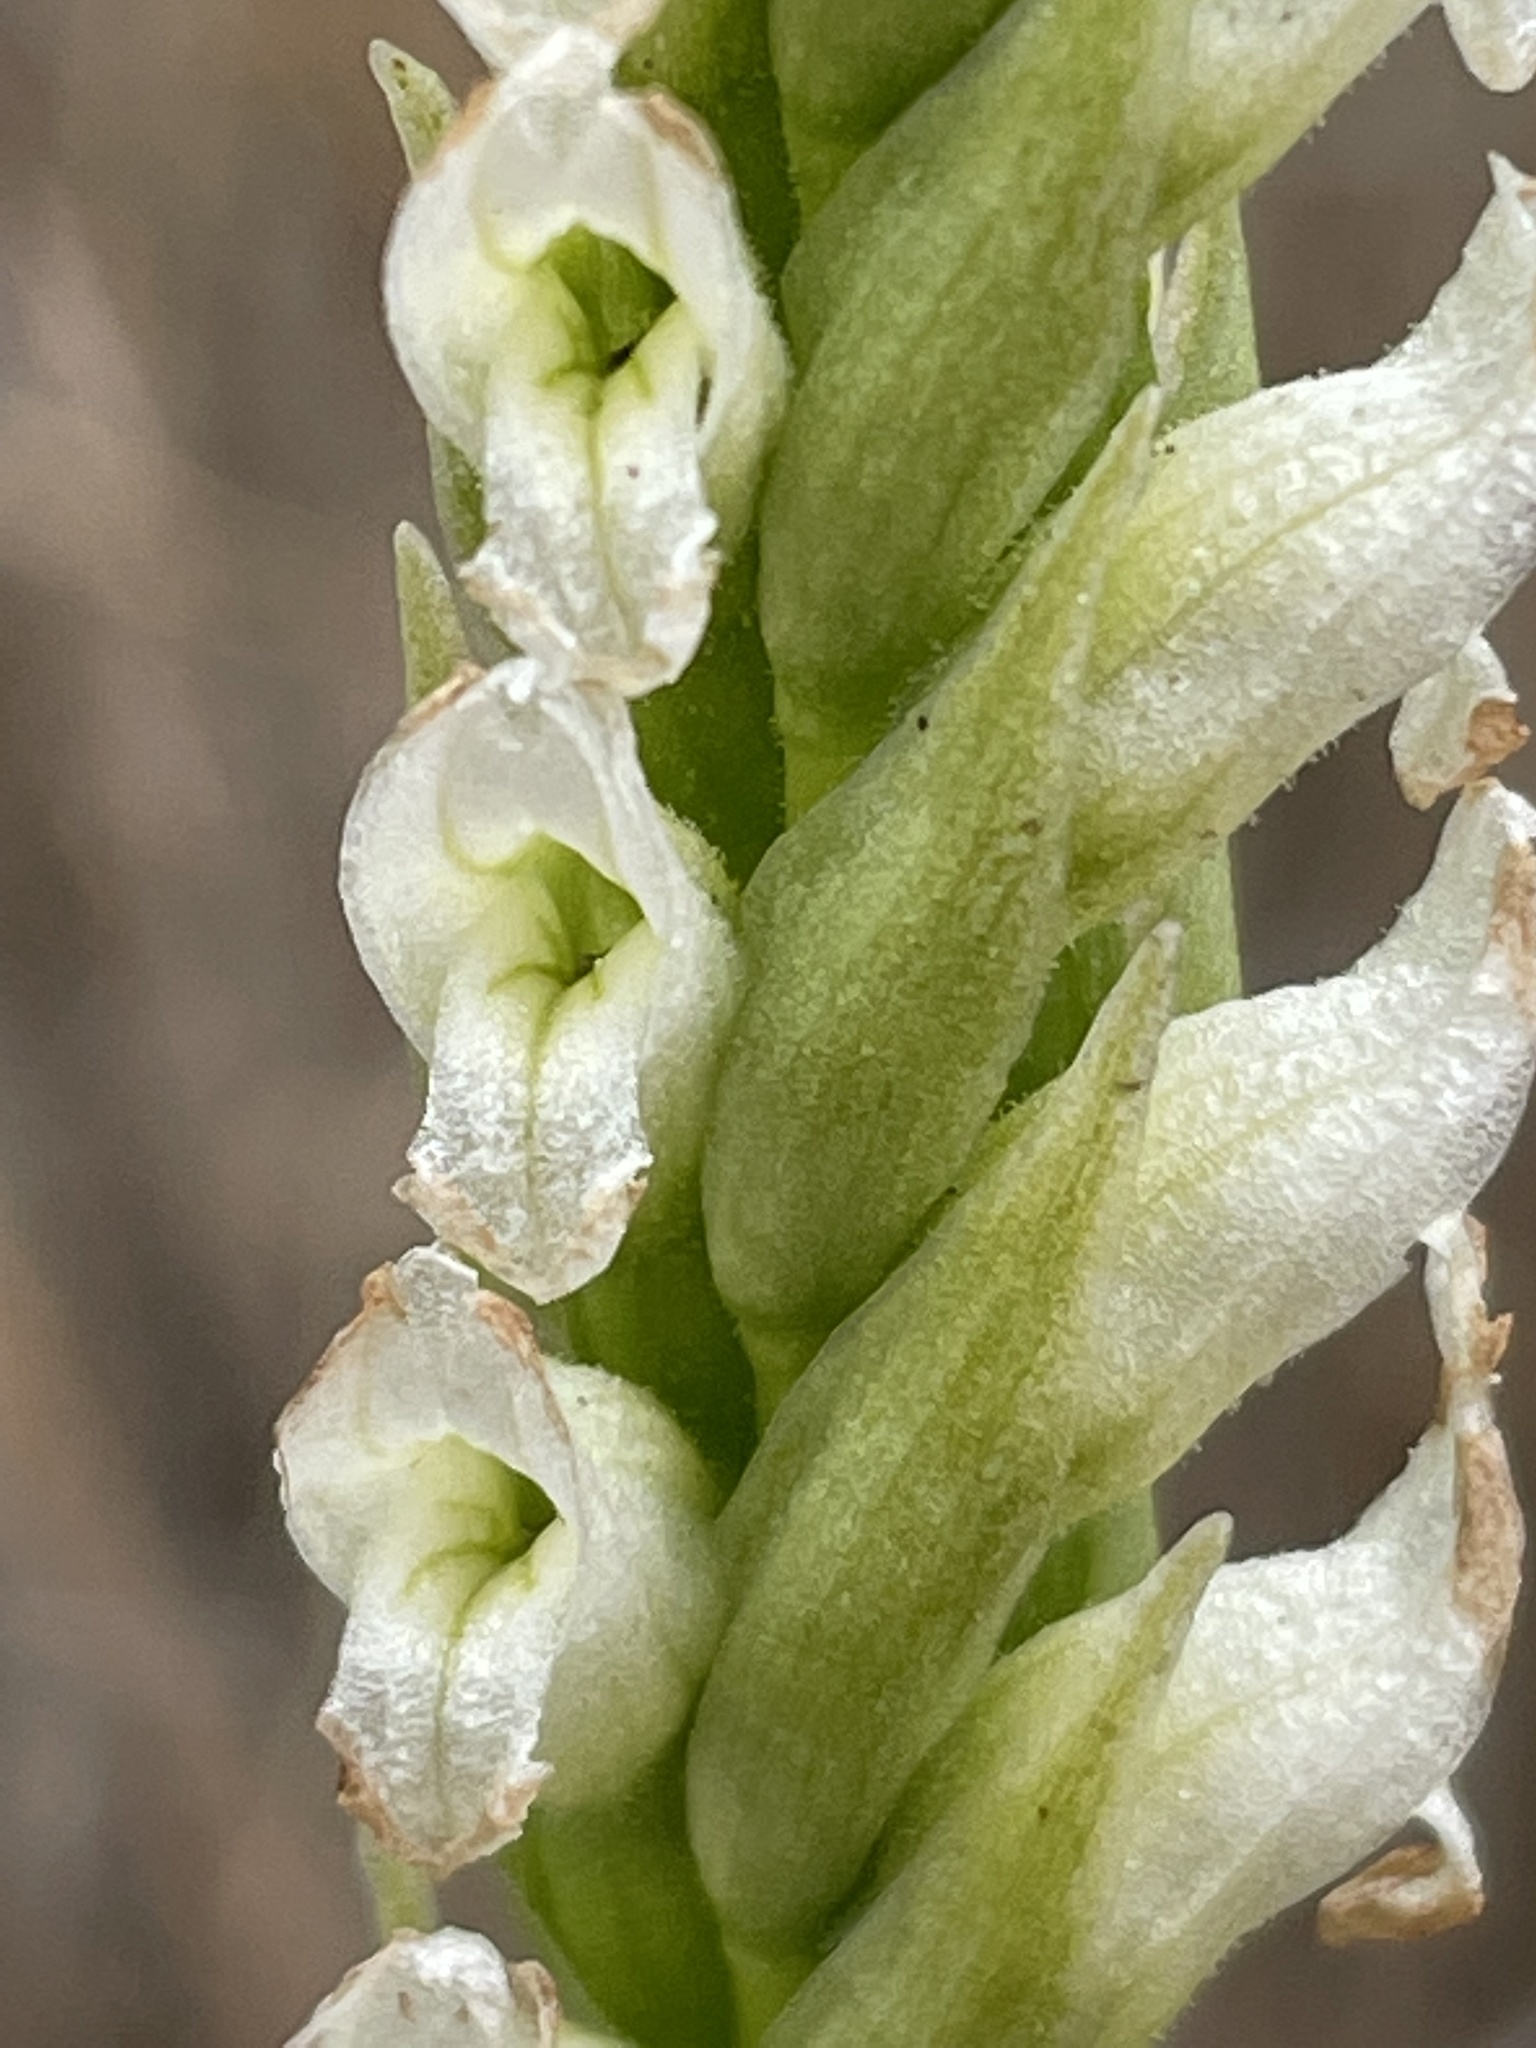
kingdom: Plantae
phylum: Tracheophyta
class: Liliopsida
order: Asparagales
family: Orchidaceae
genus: Spiranthes
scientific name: Spiranthes romanzoffiana
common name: Irish lady's-tresses
